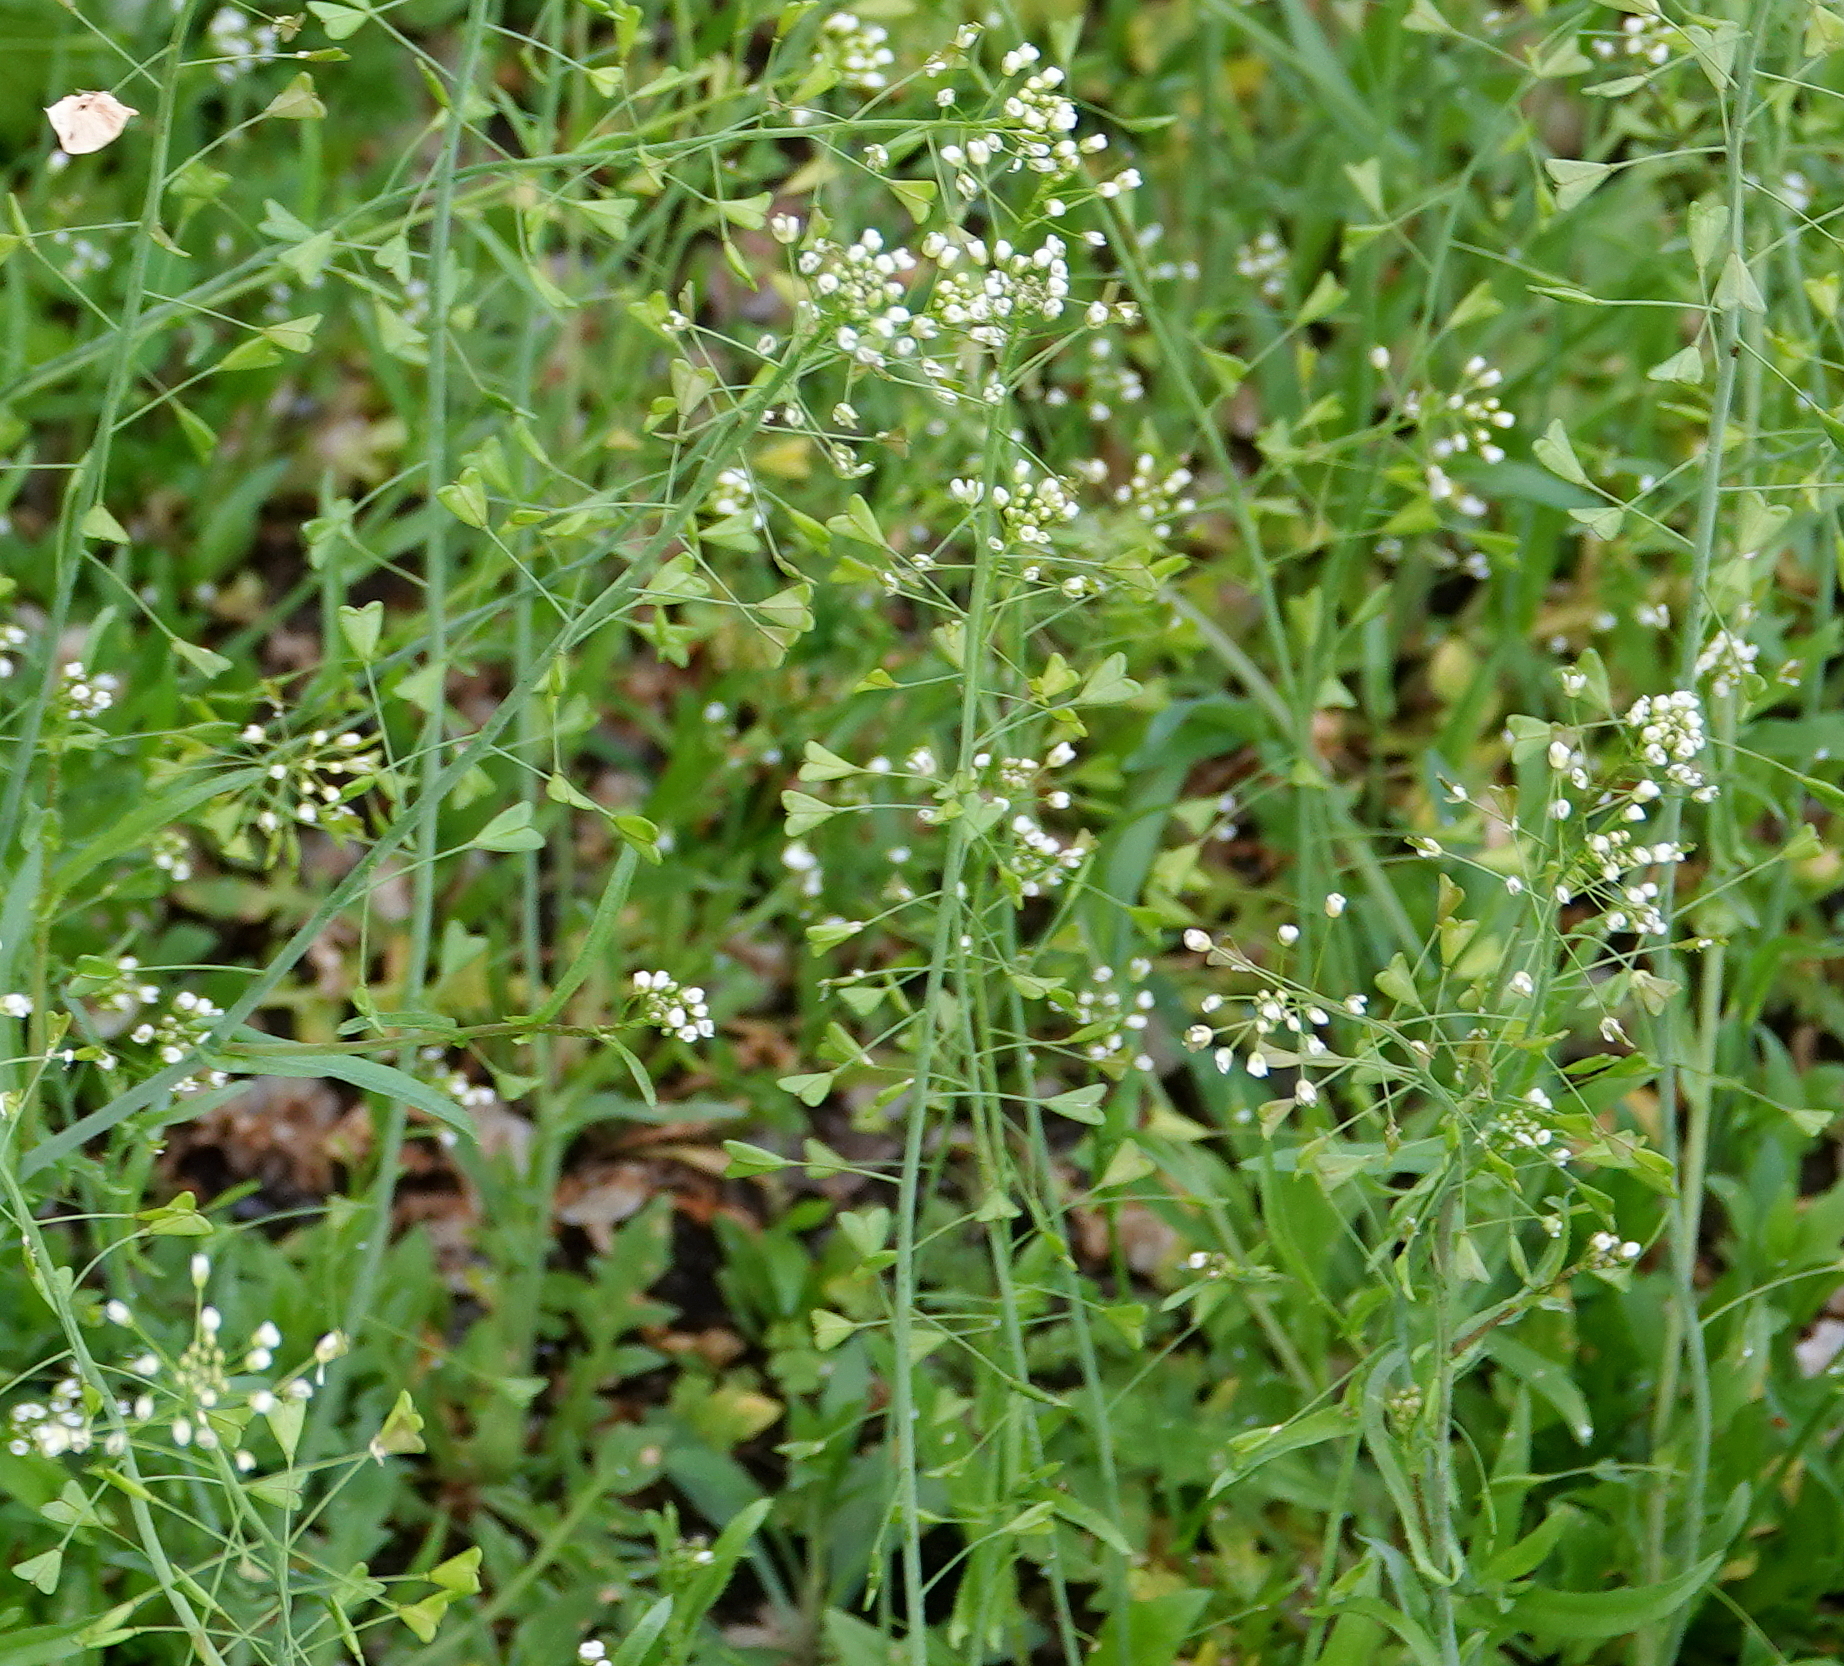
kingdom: Plantae
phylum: Tracheophyta
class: Magnoliopsida
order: Brassicales
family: Brassicaceae
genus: Capsella
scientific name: Capsella bursa-pastoris
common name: Shepherd's purse
